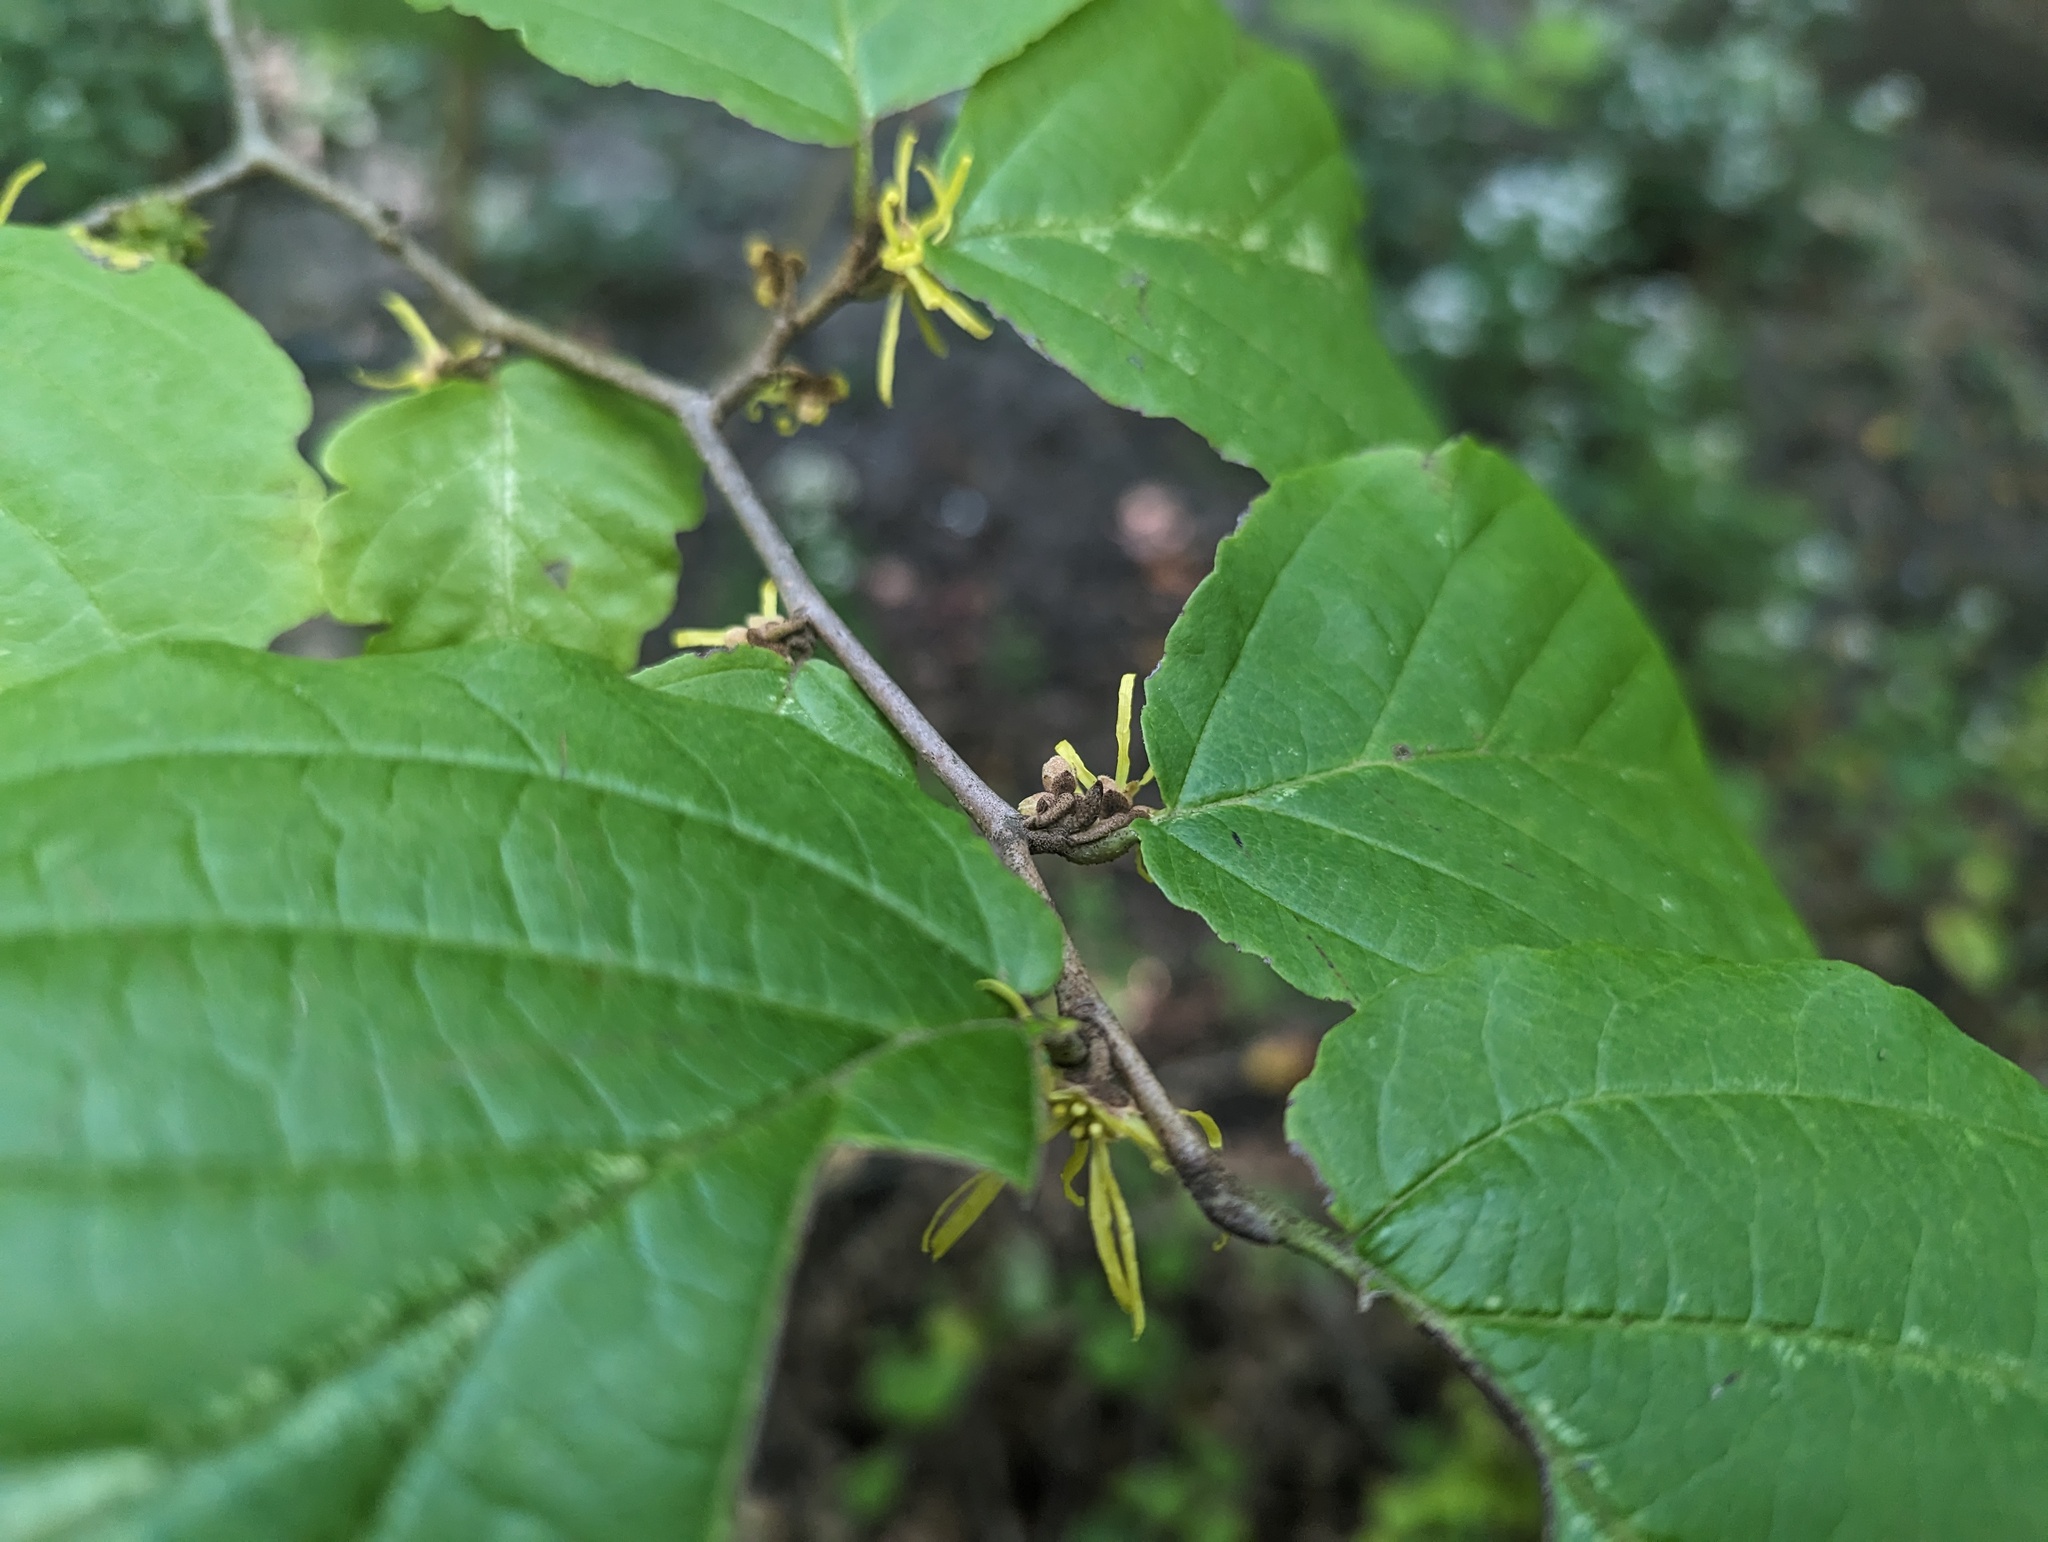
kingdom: Plantae
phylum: Tracheophyta
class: Magnoliopsida
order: Saxifragales
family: Hamamelidaceae
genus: Hamamelis
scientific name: Hamamelis virginiana
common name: Witch-hazel
